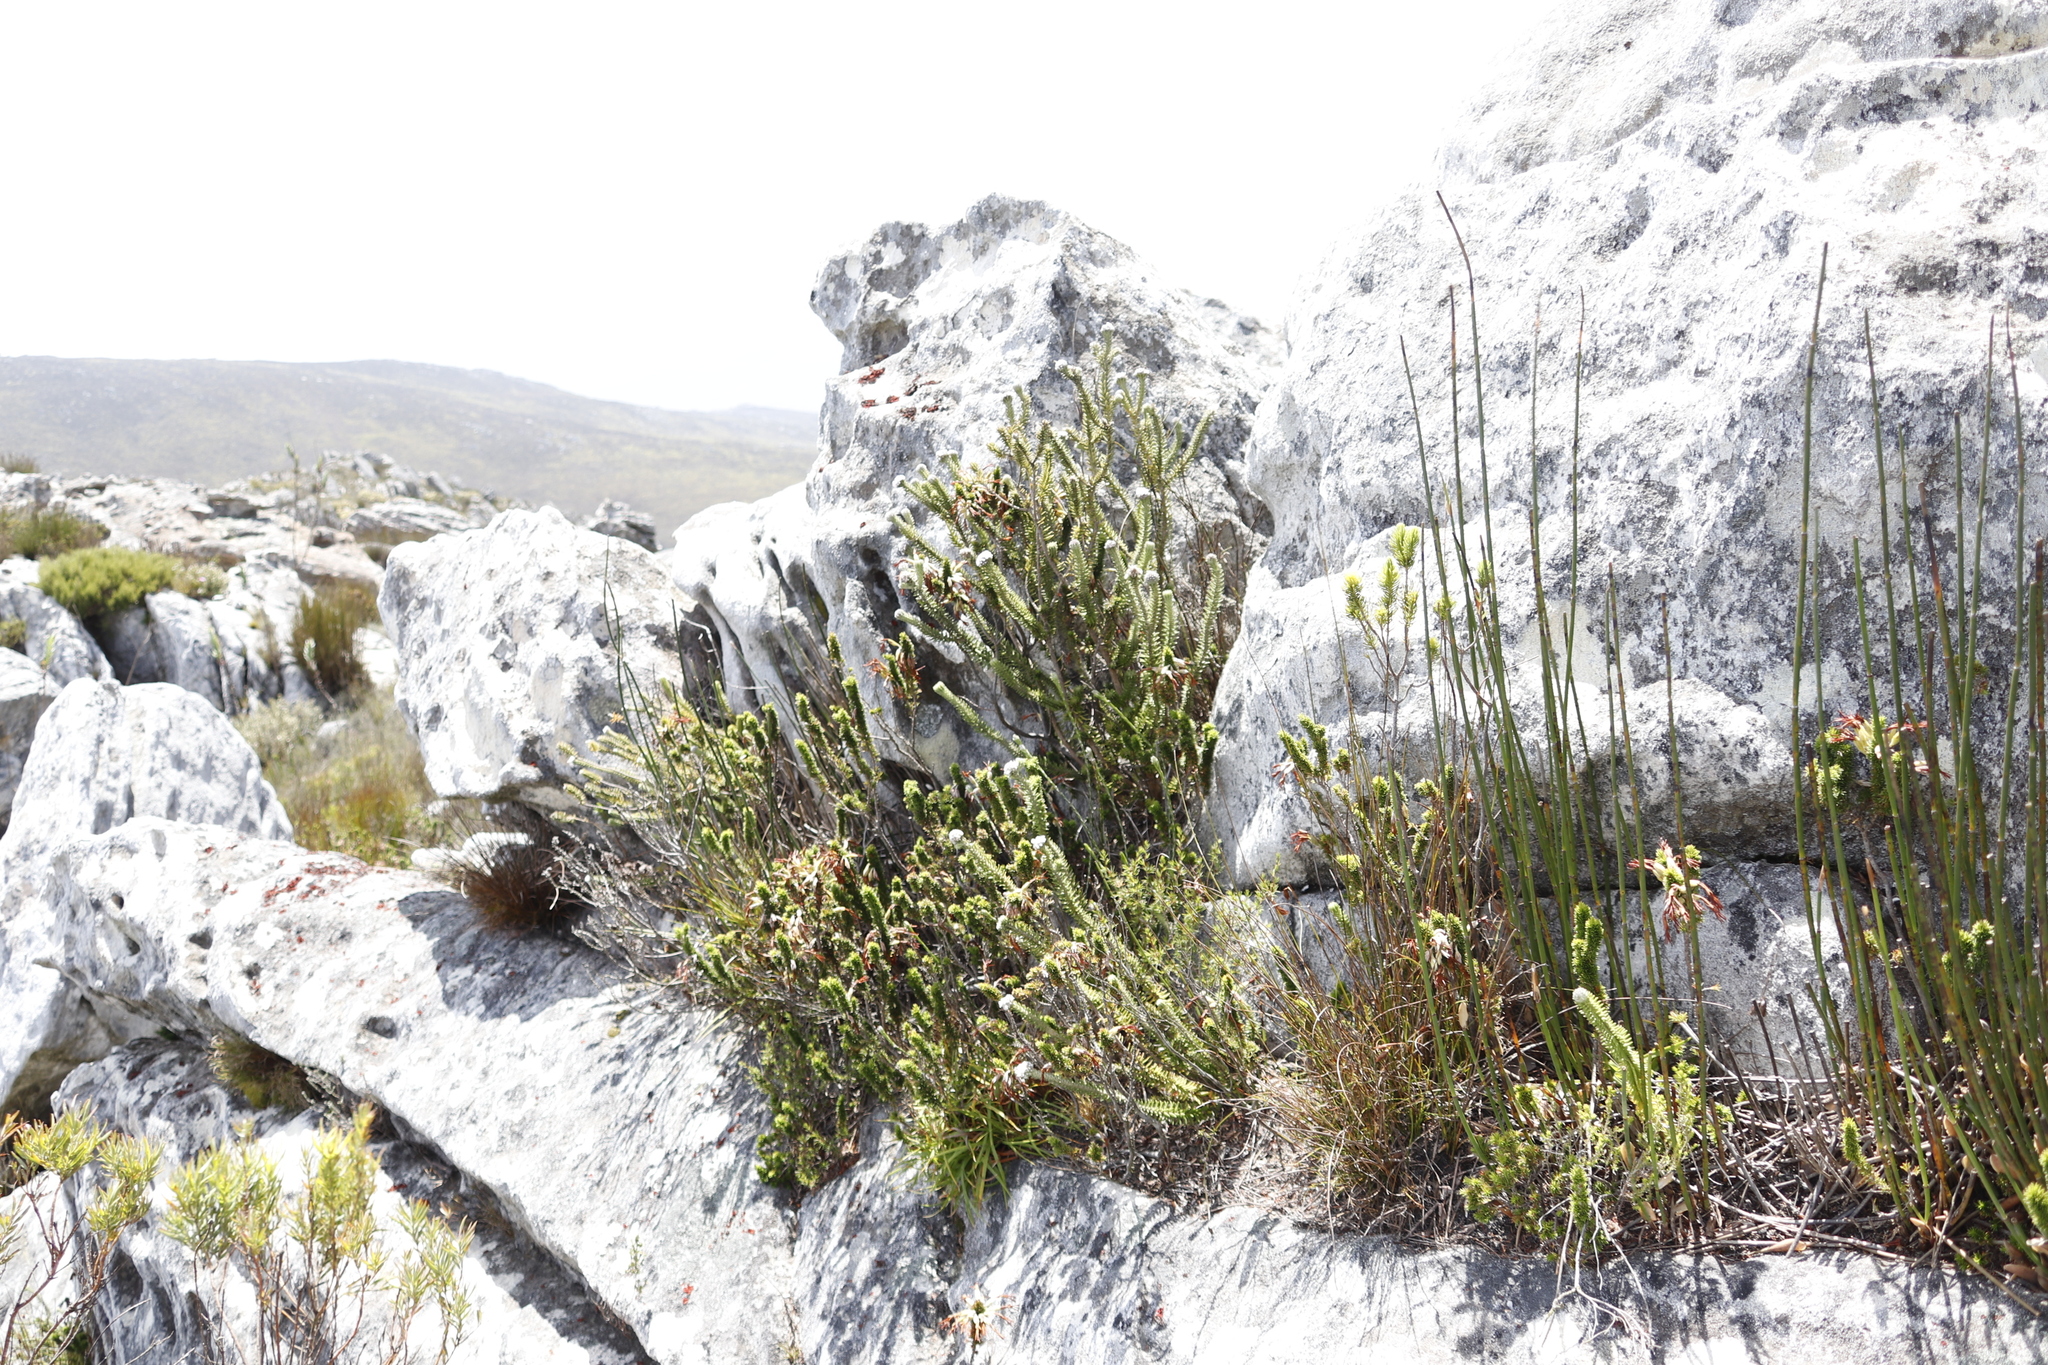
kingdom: Plantae
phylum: Tracheophyta
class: Magnoliopsida
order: Lamiales
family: Stilbaceae
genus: Kogelbergia
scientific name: Kogelbergia verticillata
